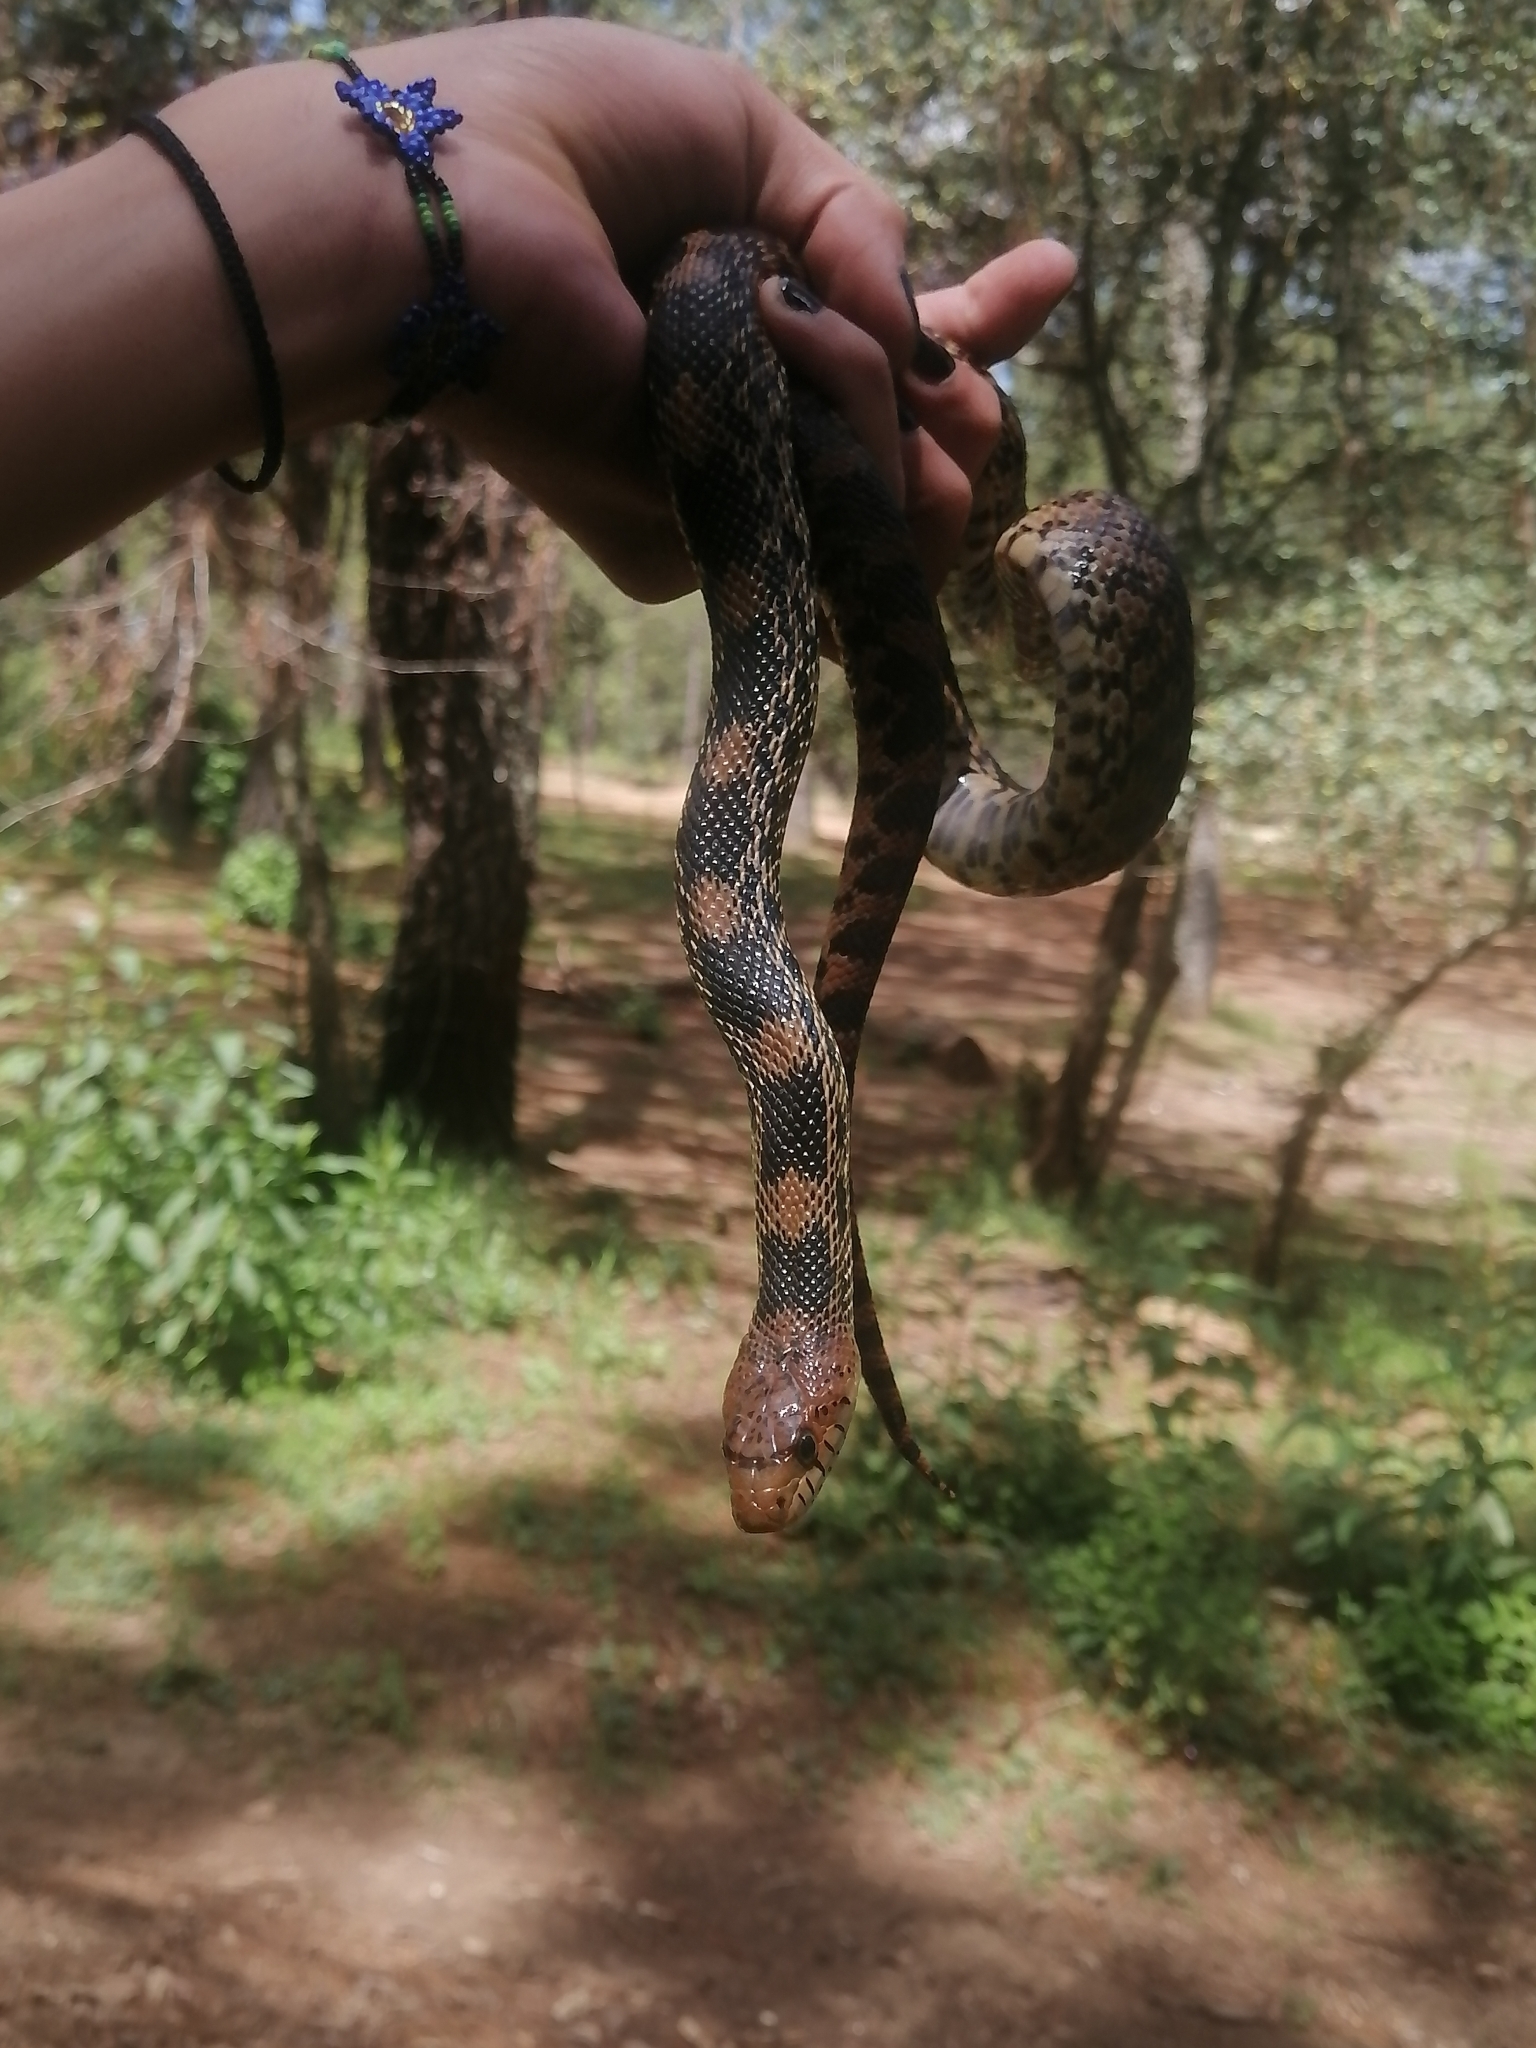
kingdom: Animalia
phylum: Chordata
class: Squamata
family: Colubridae
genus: Pituophis
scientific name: Pituophis deppei
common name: Mexican bull snake
